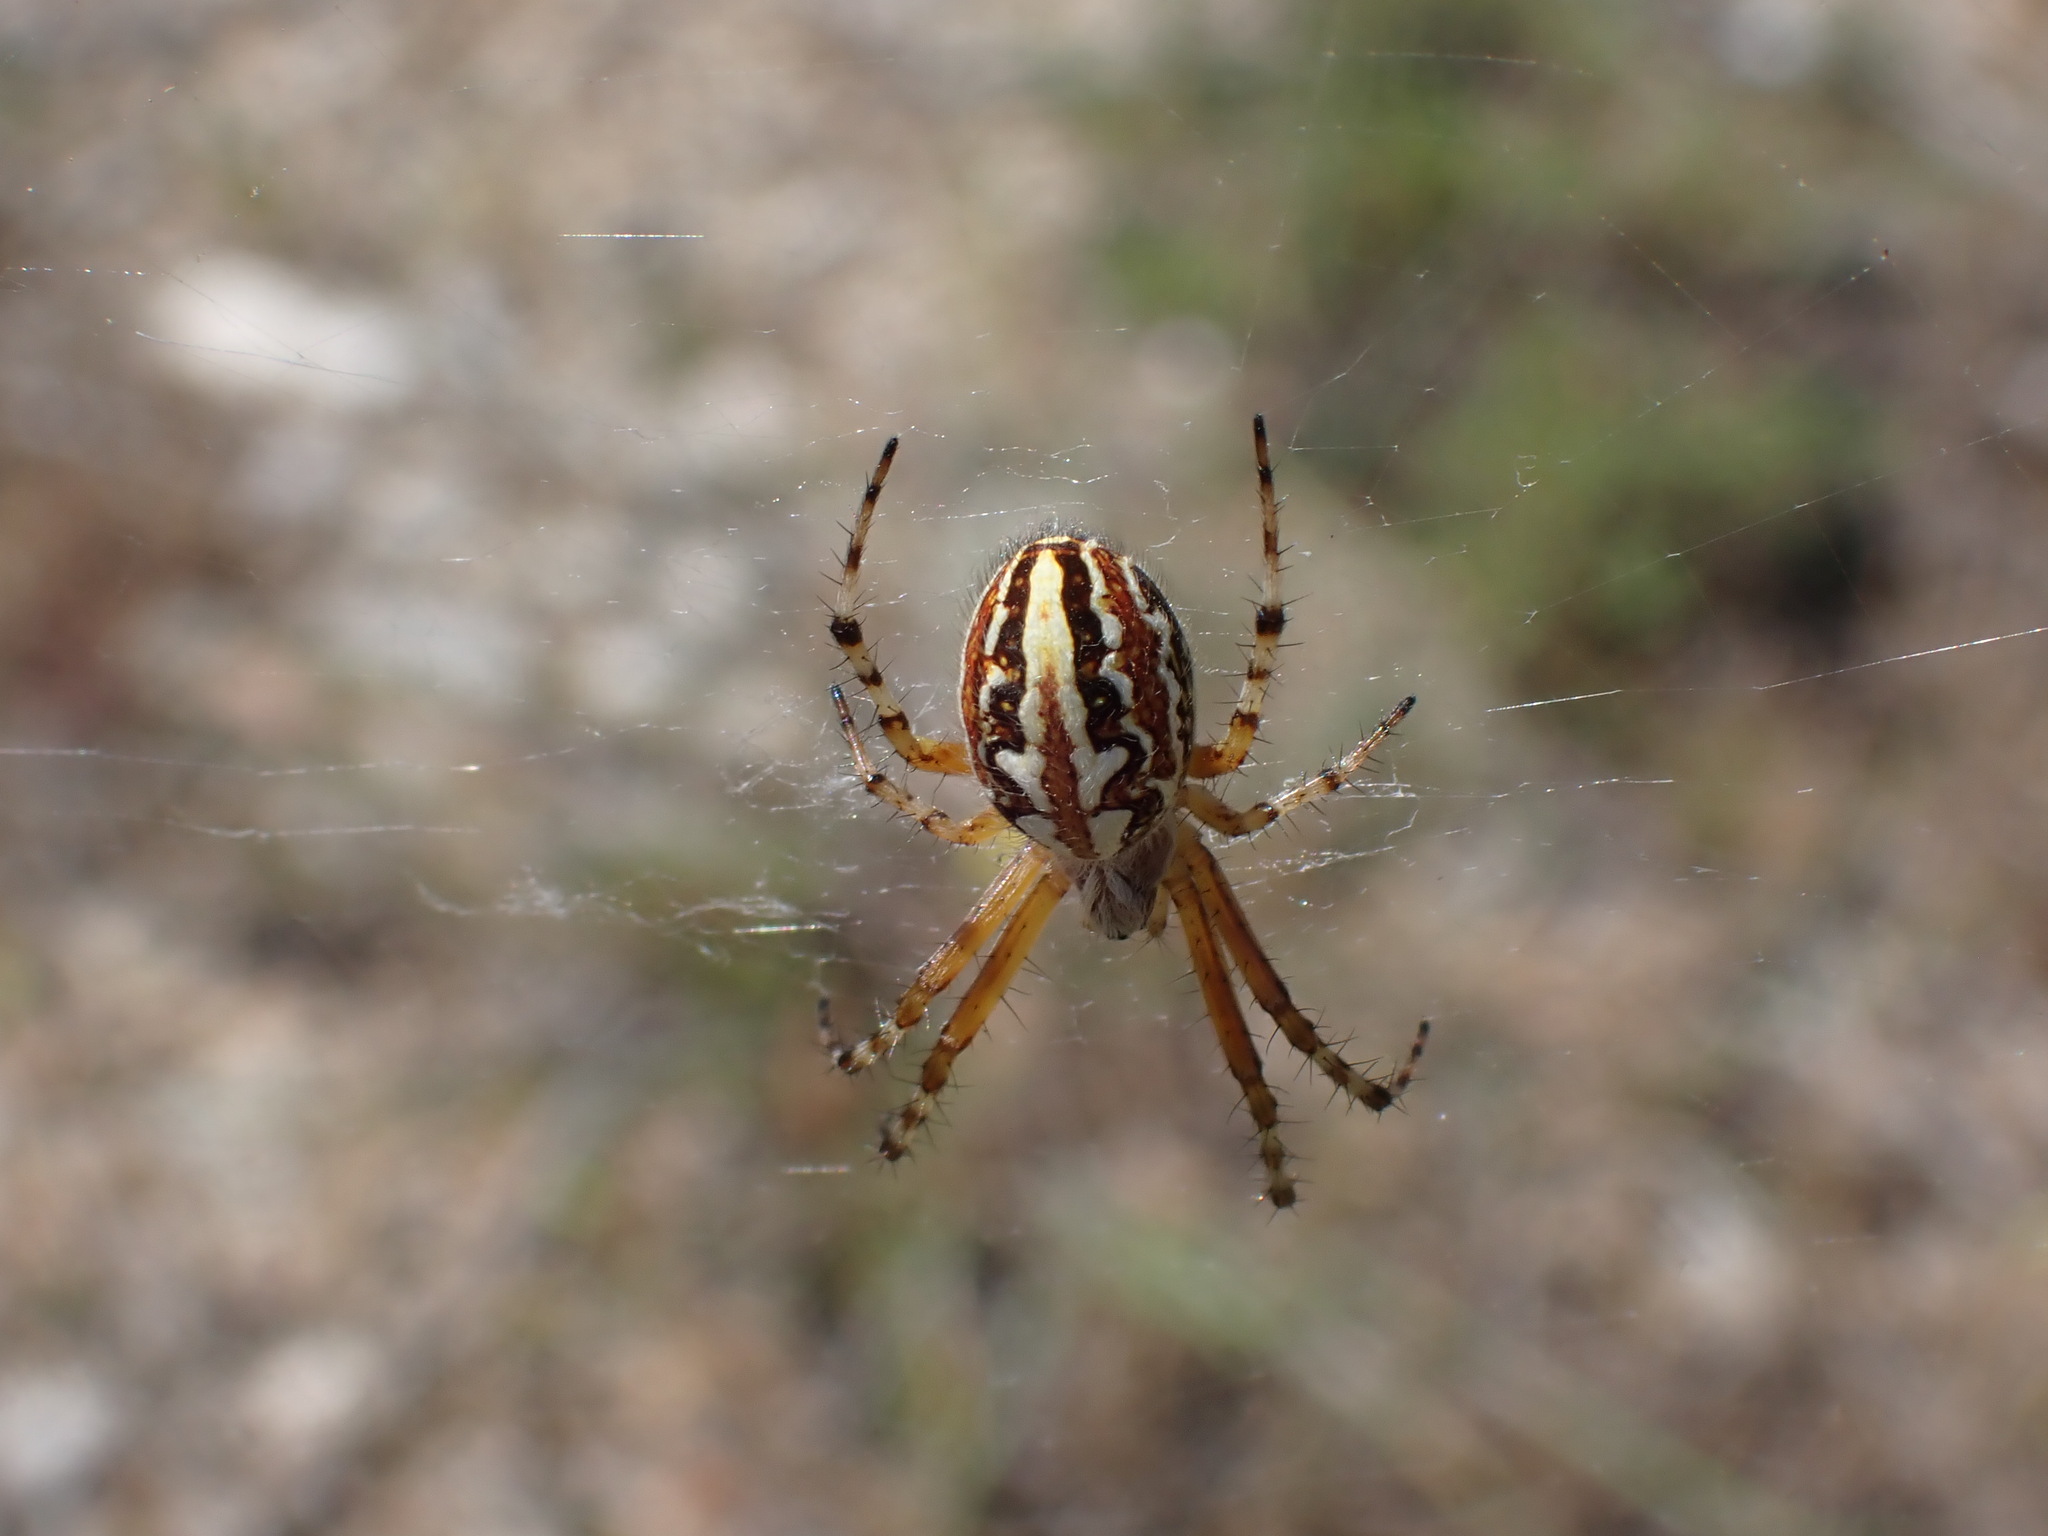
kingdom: Animalia
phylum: Arthropoda
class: Arachnida
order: Araneae
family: Araneidae
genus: Aculepeira
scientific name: Aculepeira armida
